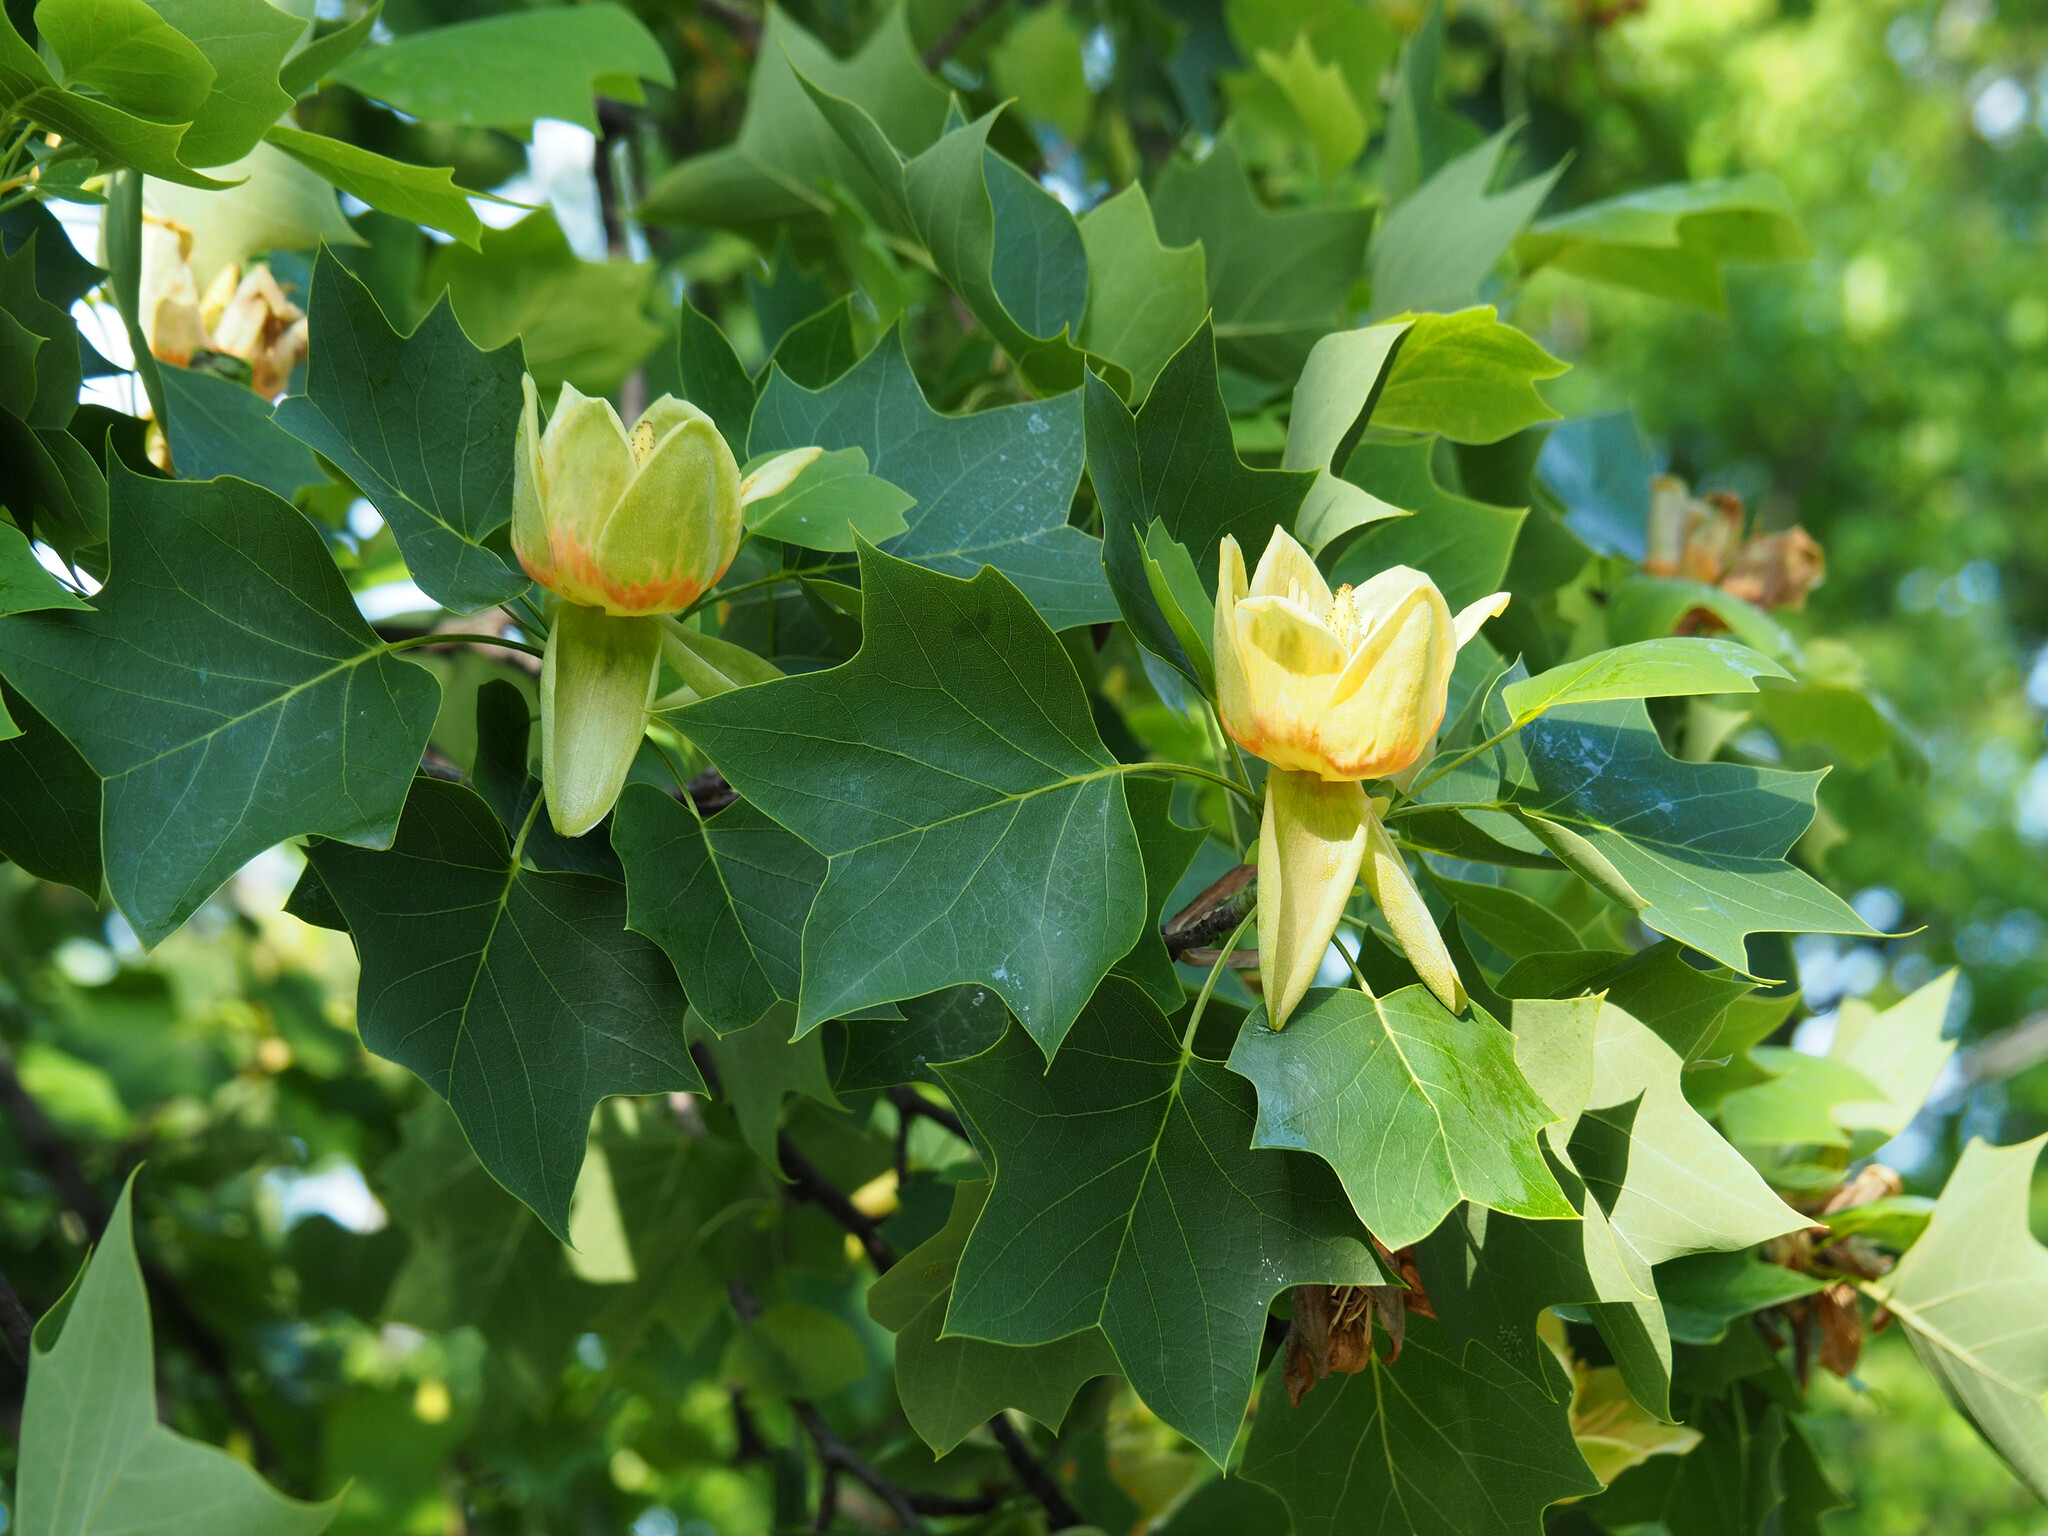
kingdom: Plantae
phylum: Tracheophyta
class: Magnoliopsida
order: Magnoliales
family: Magnoliaceae
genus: Liriodendron
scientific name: Liriodendron tulipifera
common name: Tulip tree
